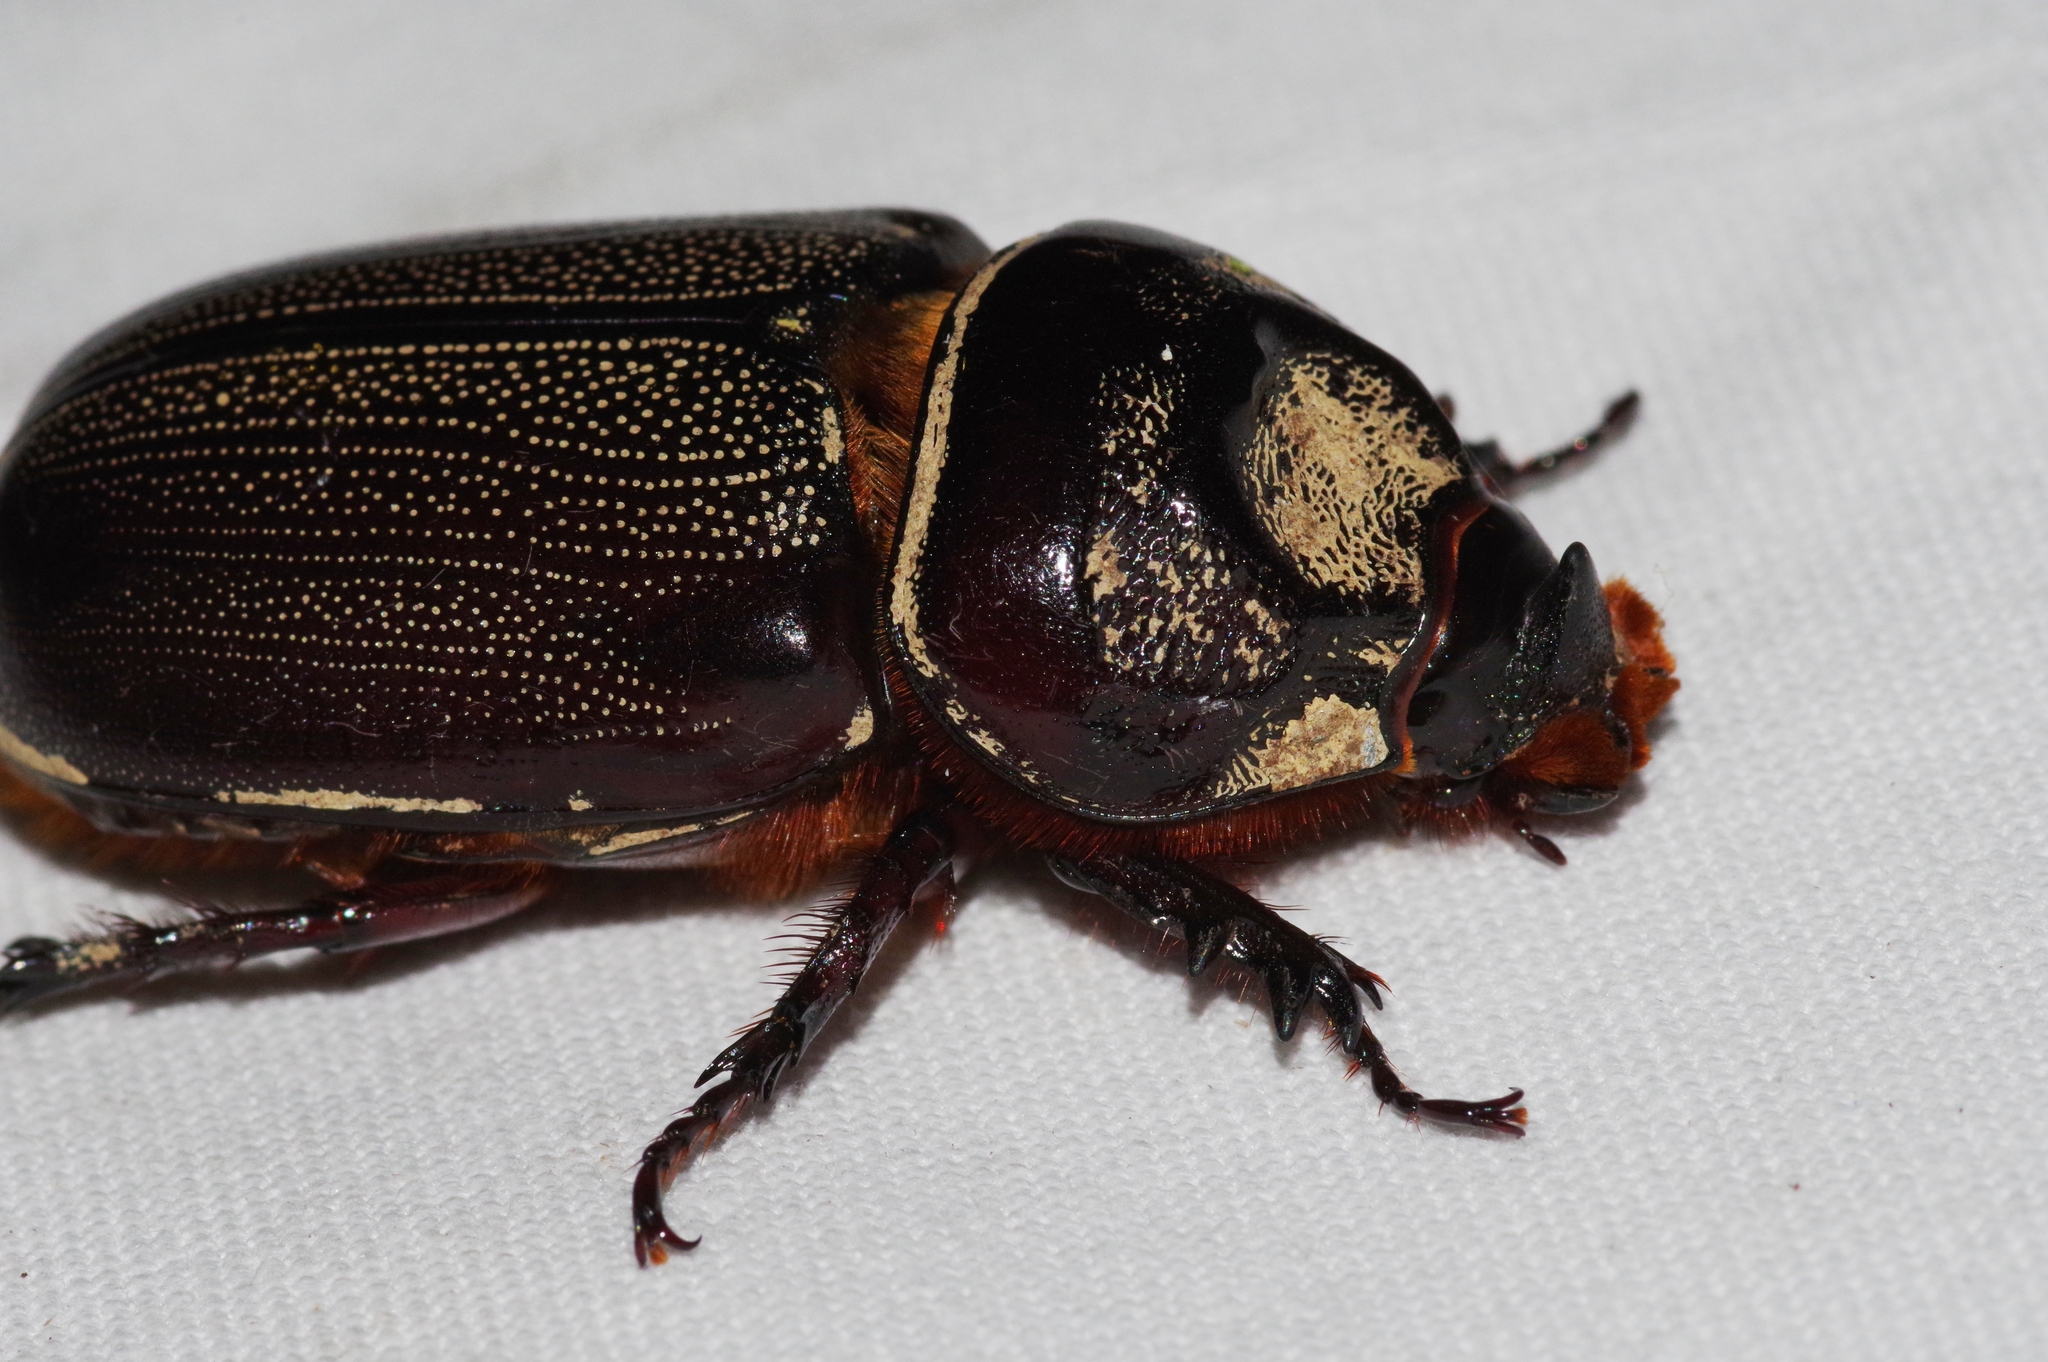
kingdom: Animalia
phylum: Arthropoda
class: Insecta
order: Coleoptera
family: Scarabaeidae
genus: Oryctes
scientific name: Oryctes rhinoceros
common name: Coconut rhinoceros beetle
